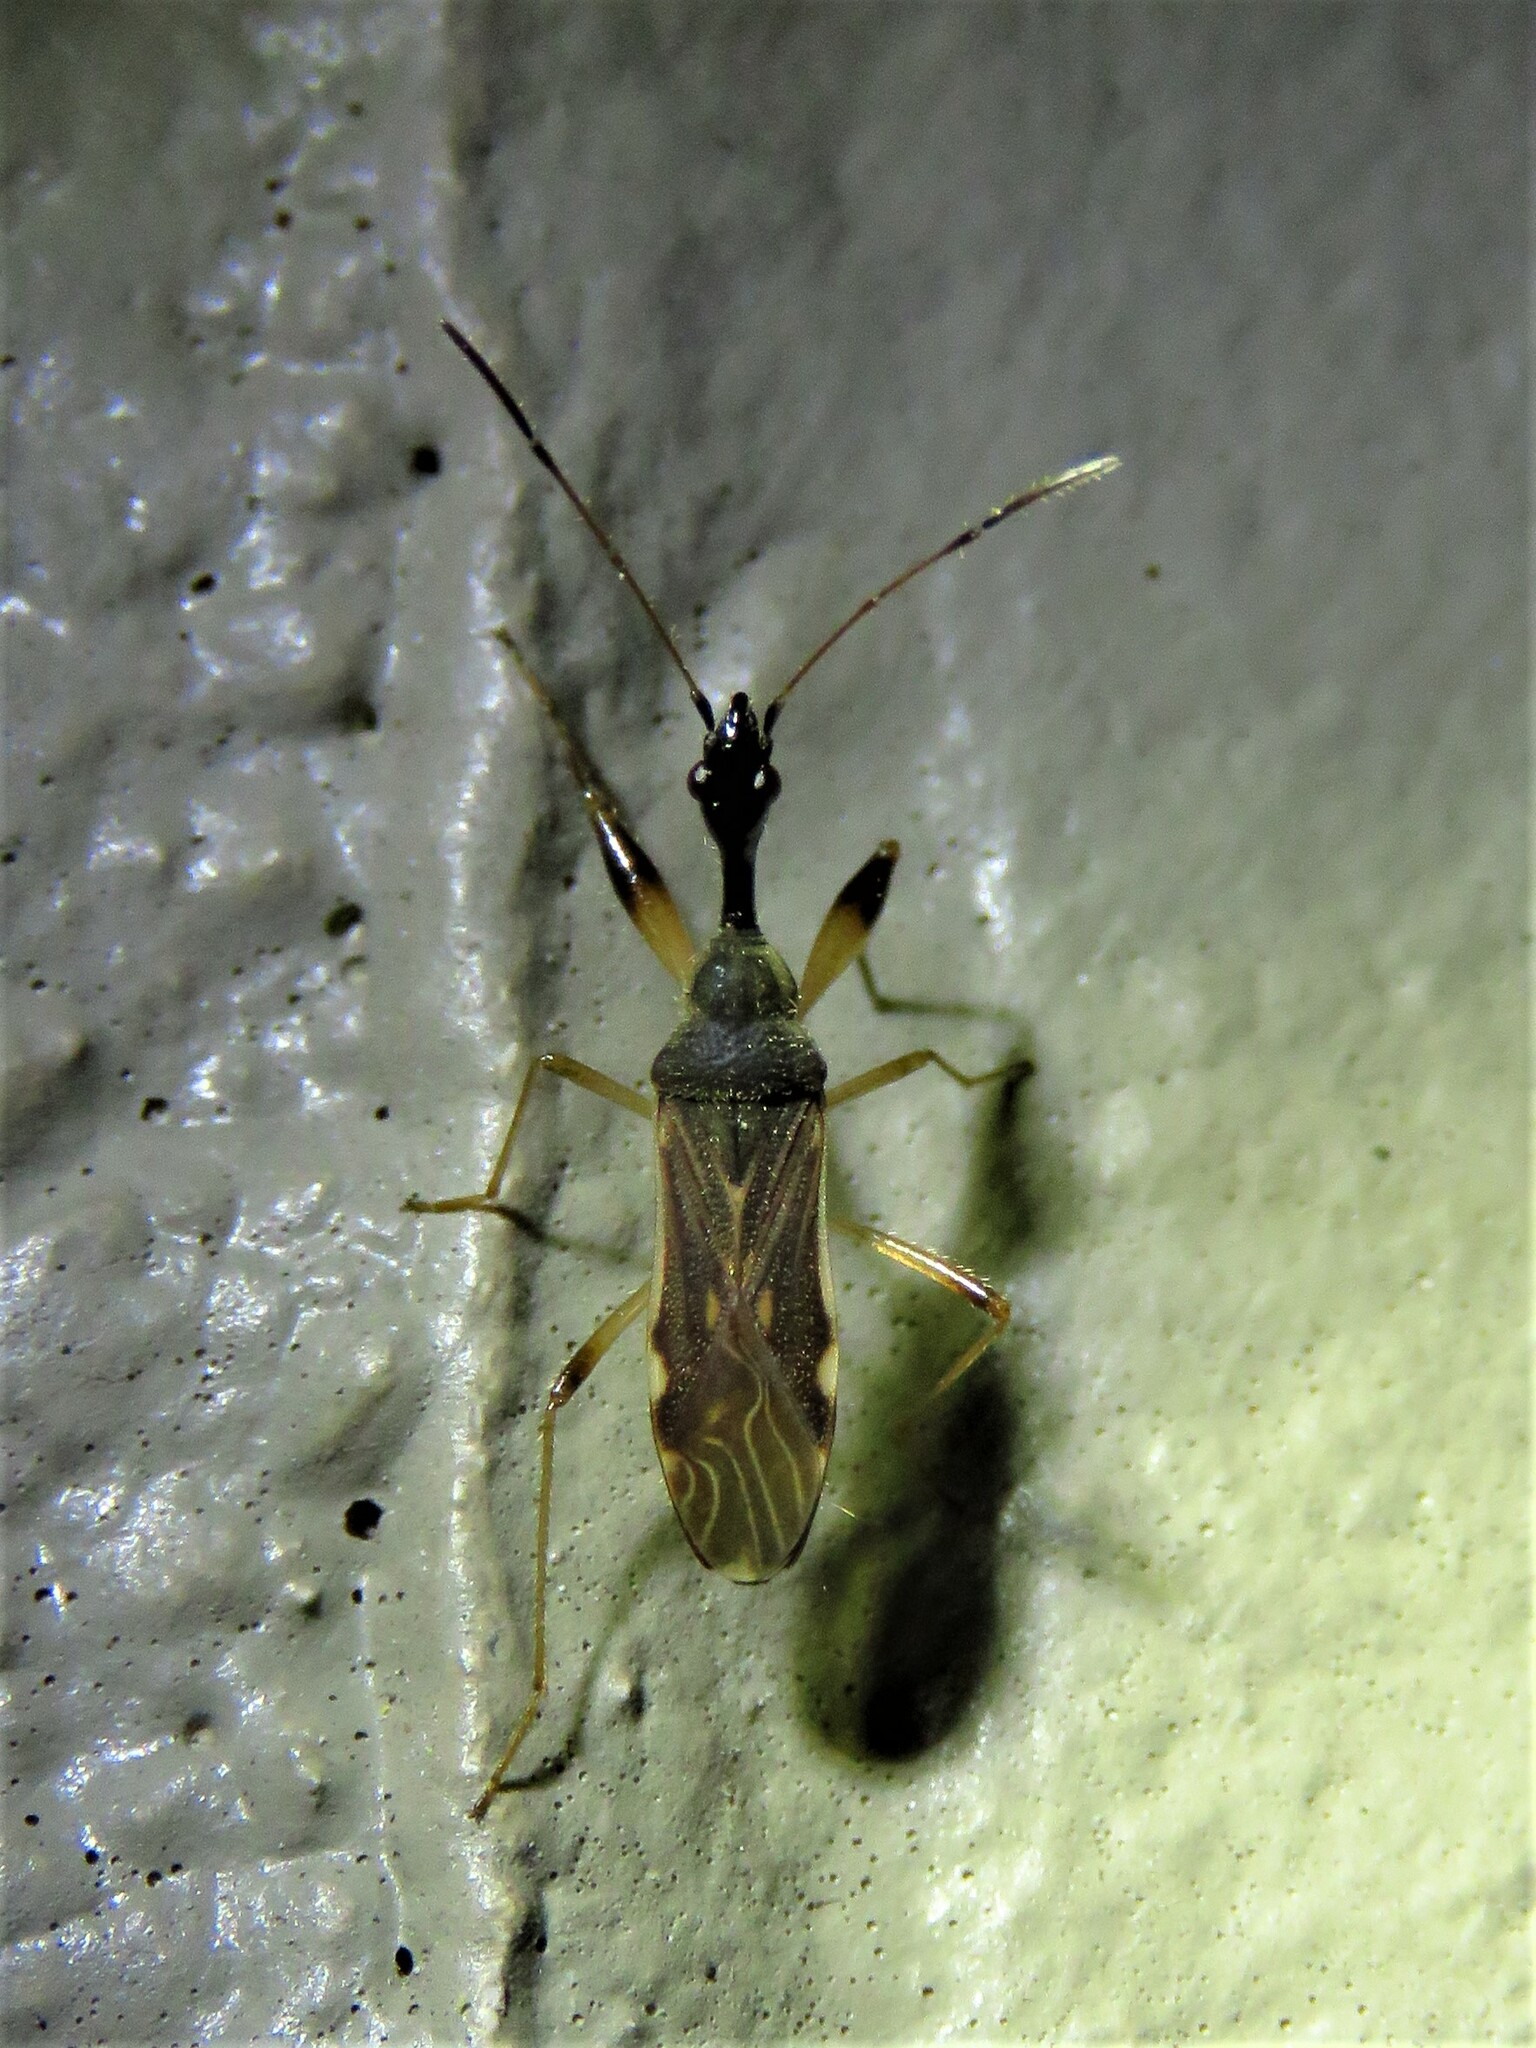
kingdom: Animalia
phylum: Arthropoda
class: Insecta
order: Hemiptera
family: Rhyparochromidae
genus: Myodocha
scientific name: Myodocha serripes
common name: Long-necked seed bug
